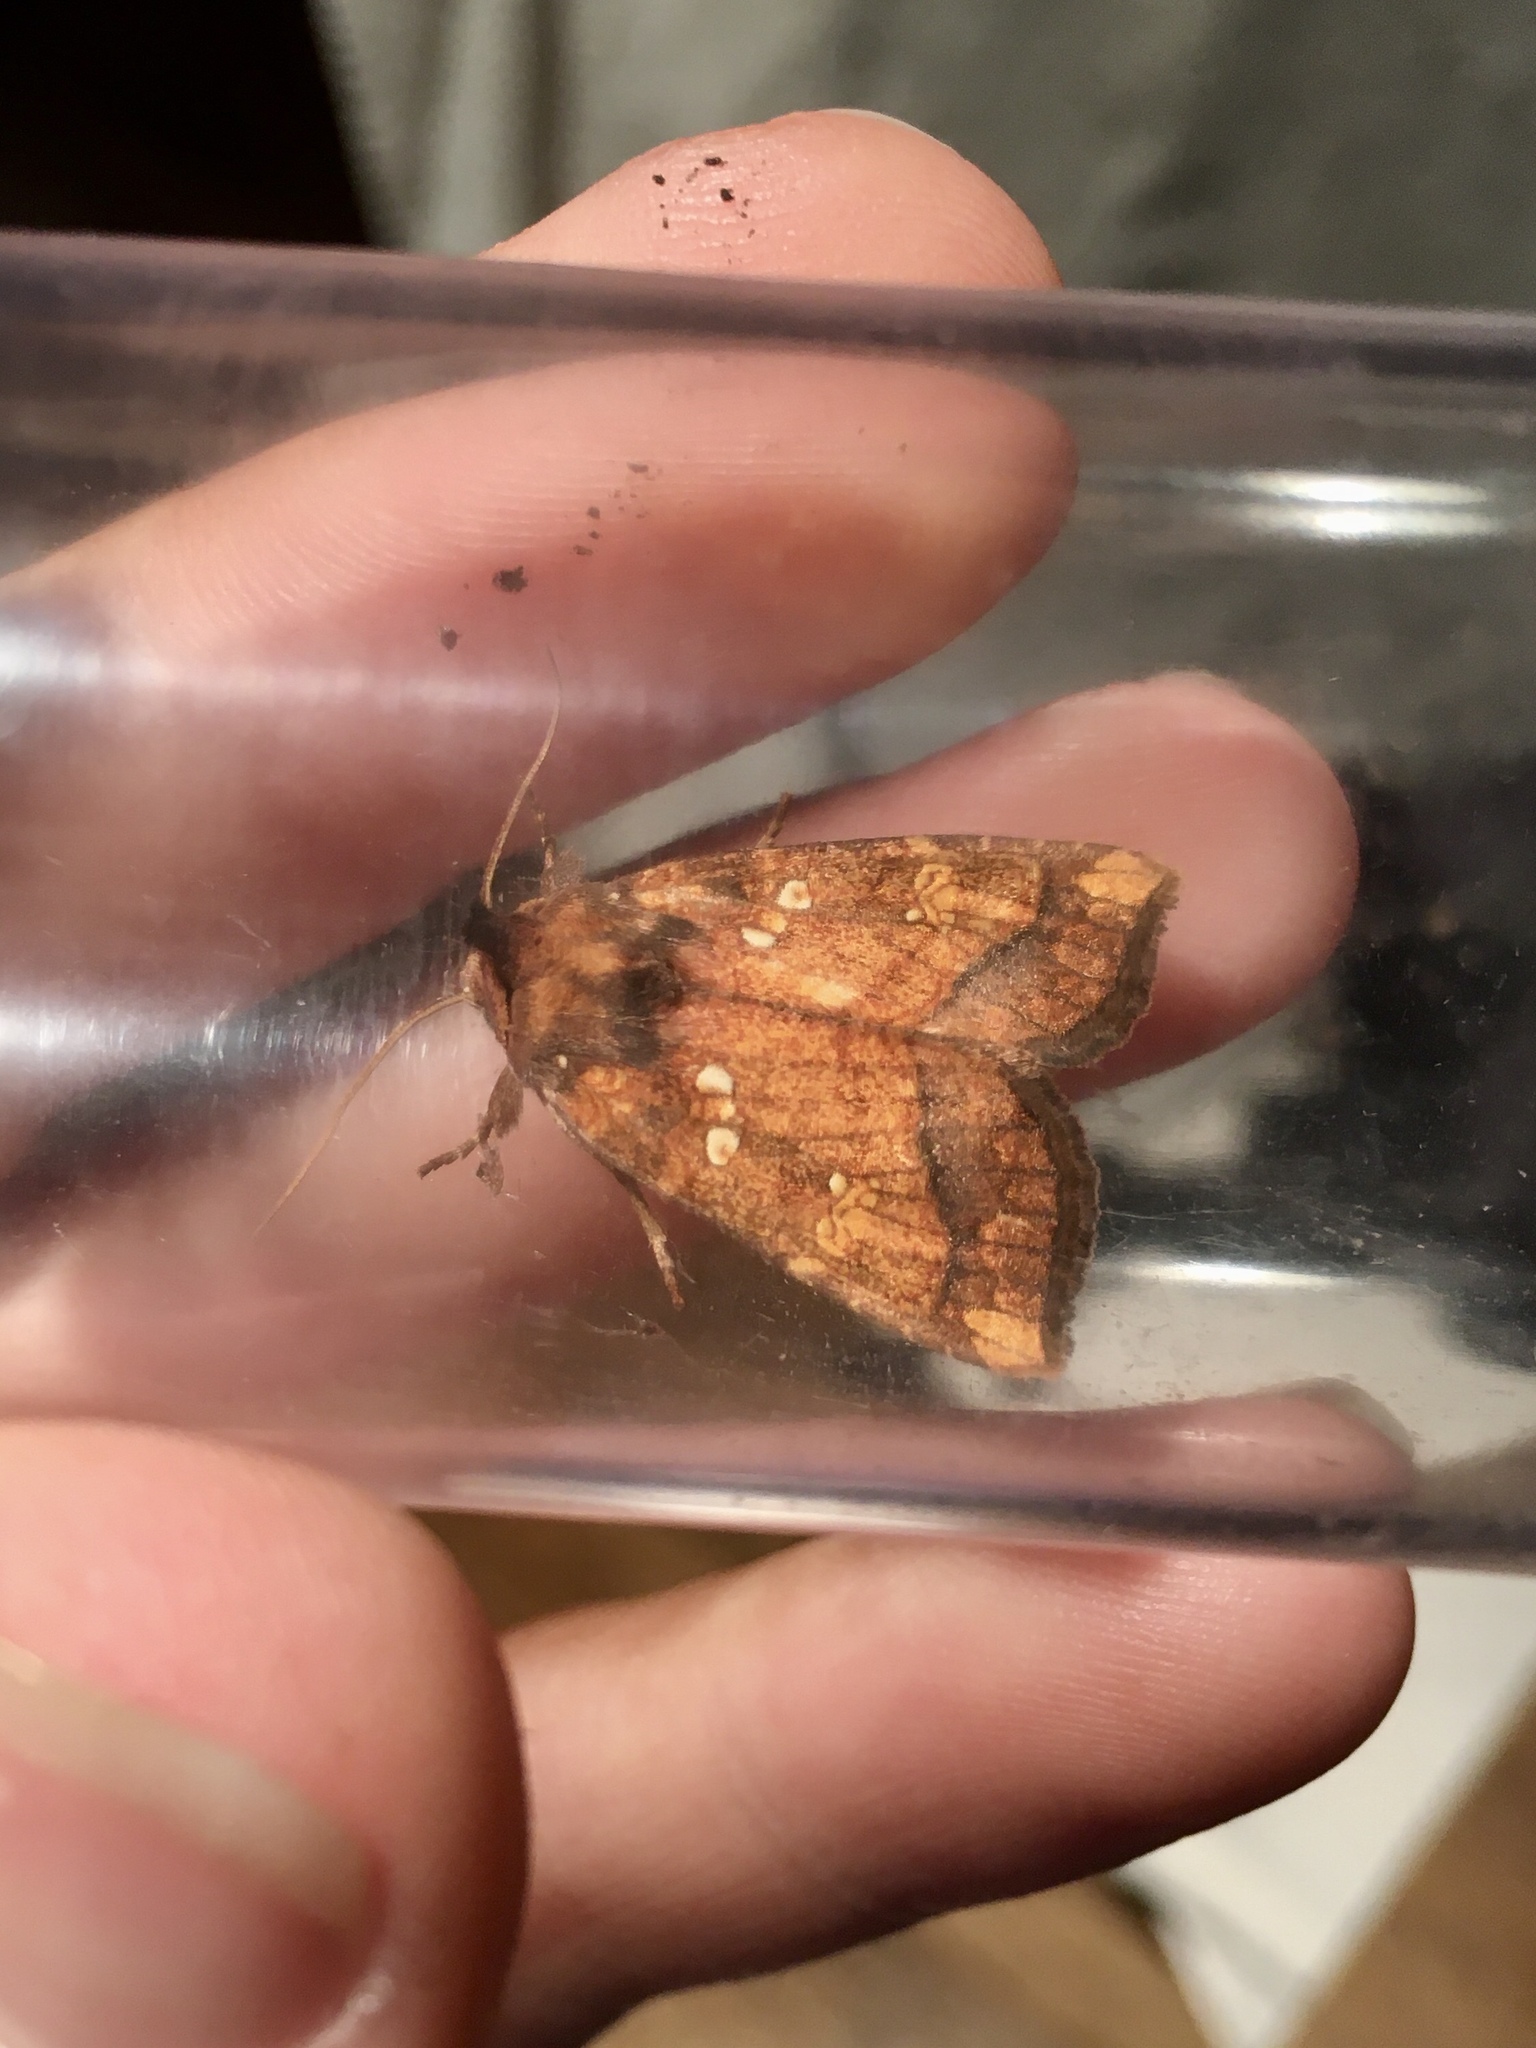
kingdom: Animalia
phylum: Arthropoda
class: Insecta
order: Lepidoptera
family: Noctuidae
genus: Papaipema
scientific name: Papaipema harrisii
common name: Heracleum stem borer moth
